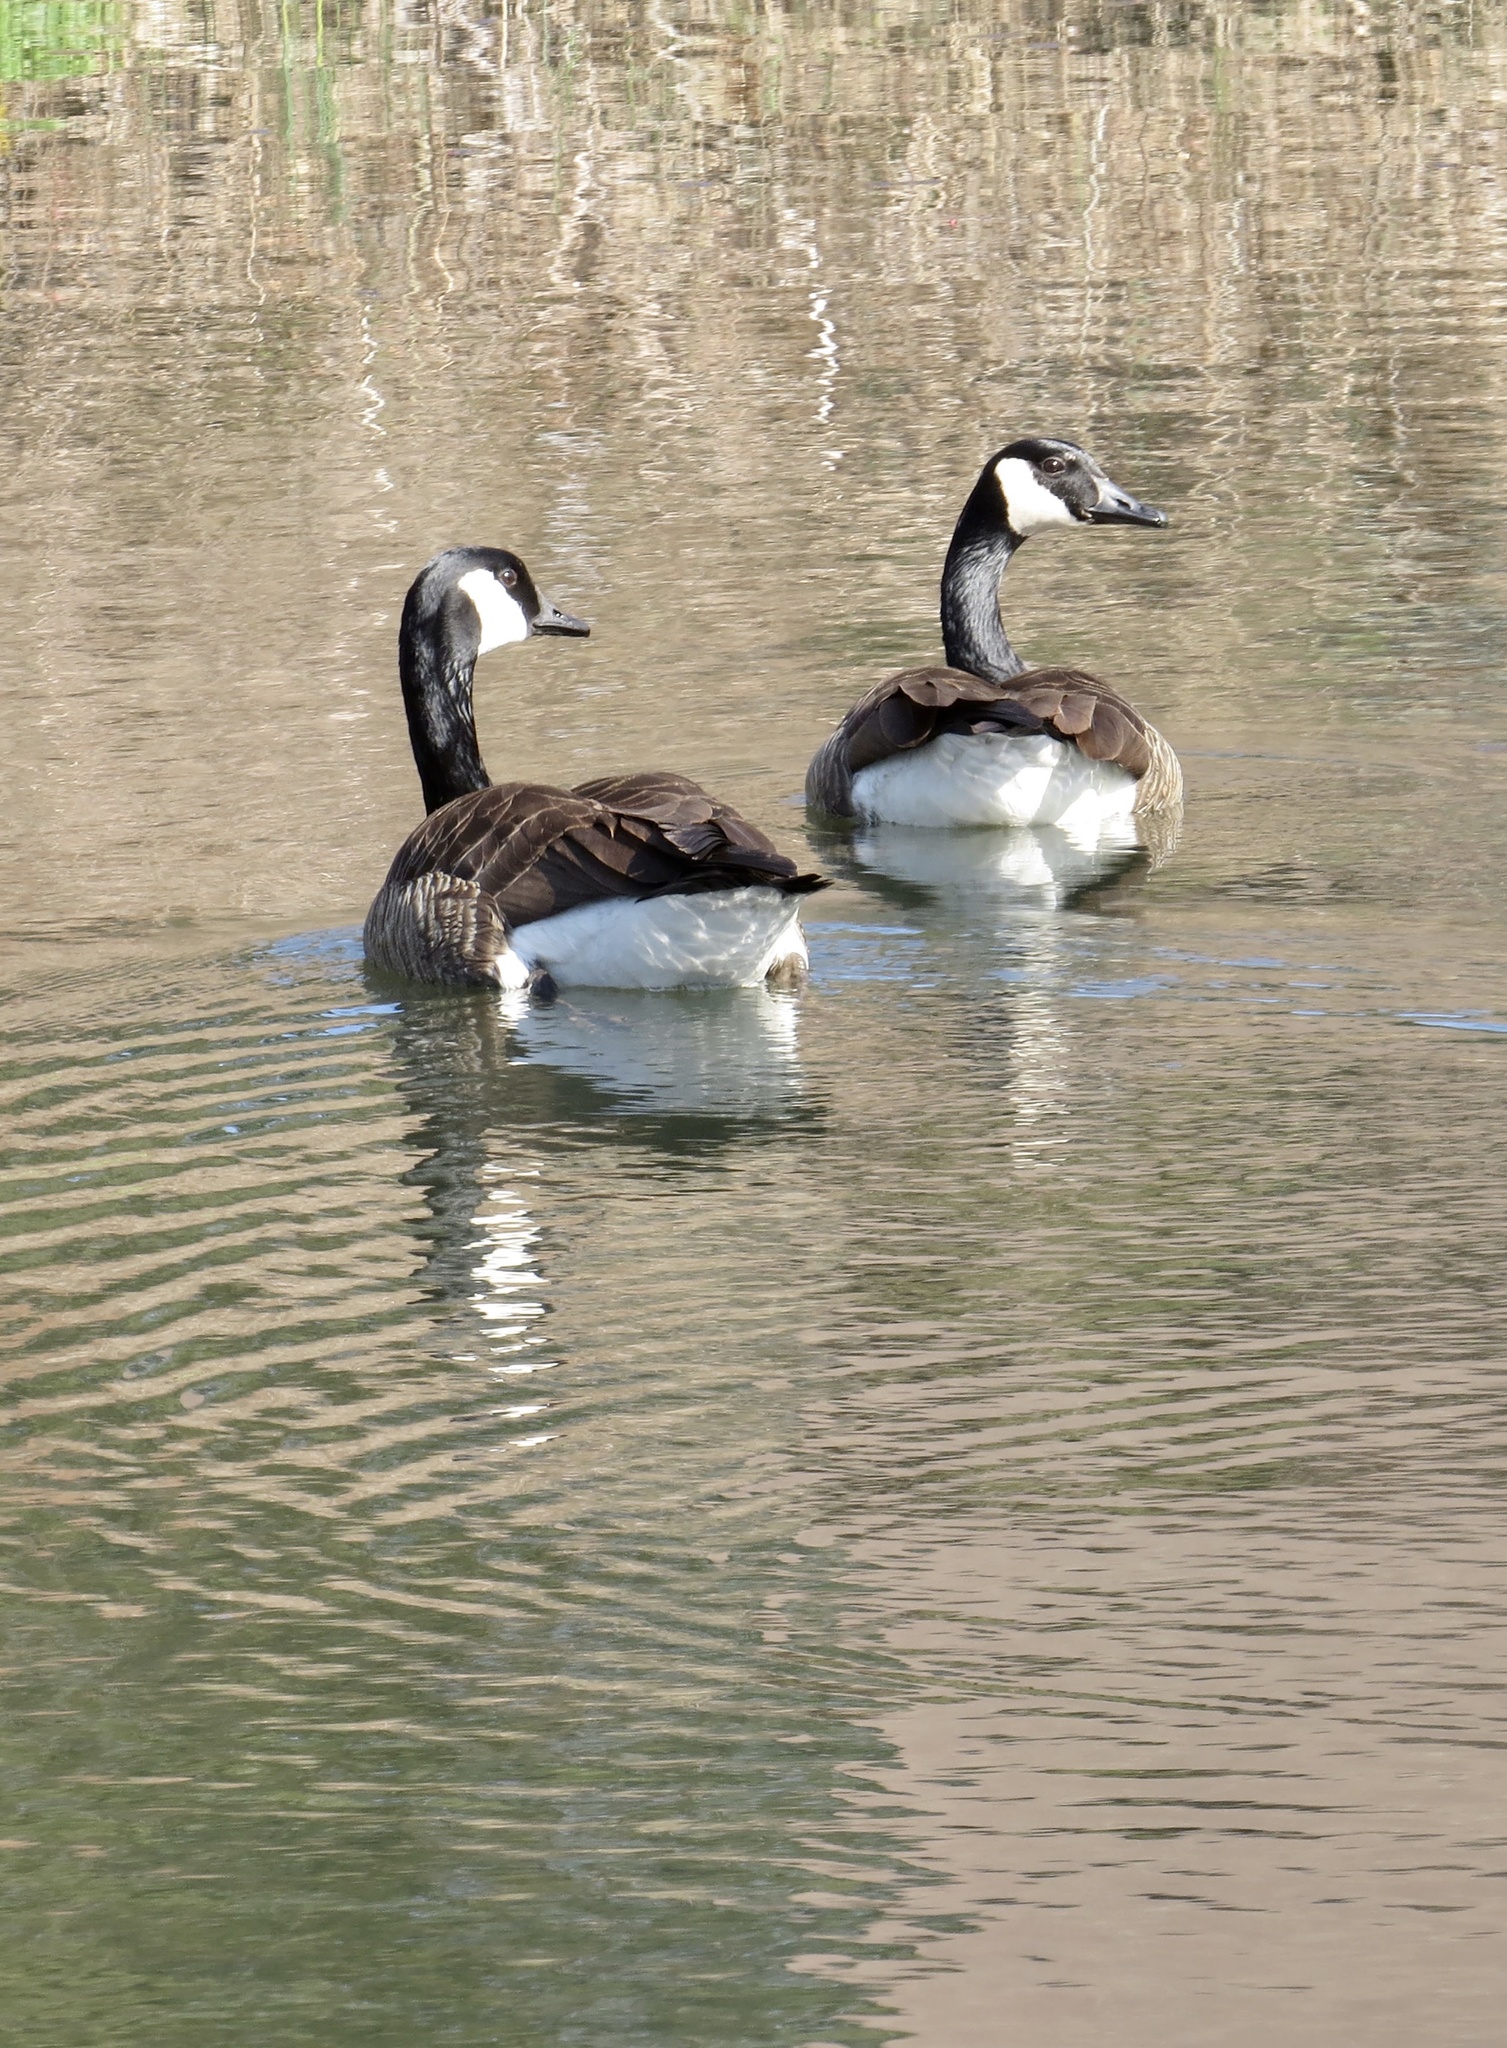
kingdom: Animalia
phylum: Chordata
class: Aves
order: Anseriformes
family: Anatidae
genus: Branta
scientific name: Branta canadensis
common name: Canada goose
